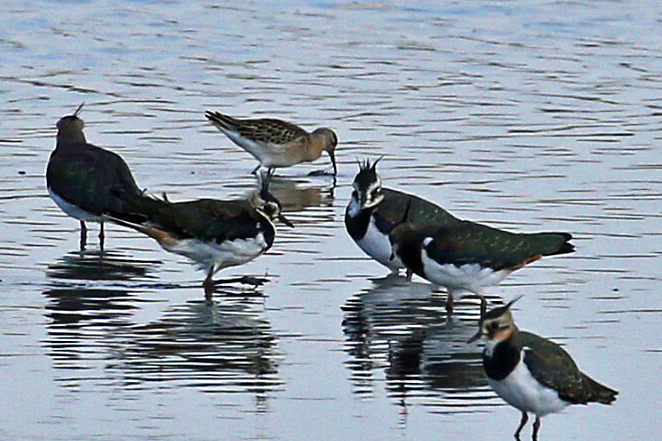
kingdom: Animalia
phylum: Chordata
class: Aves
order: Charadriiformes
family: Scolopacidae
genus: Calidris
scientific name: Calidris ferruginea
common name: Curlew sandpiper
